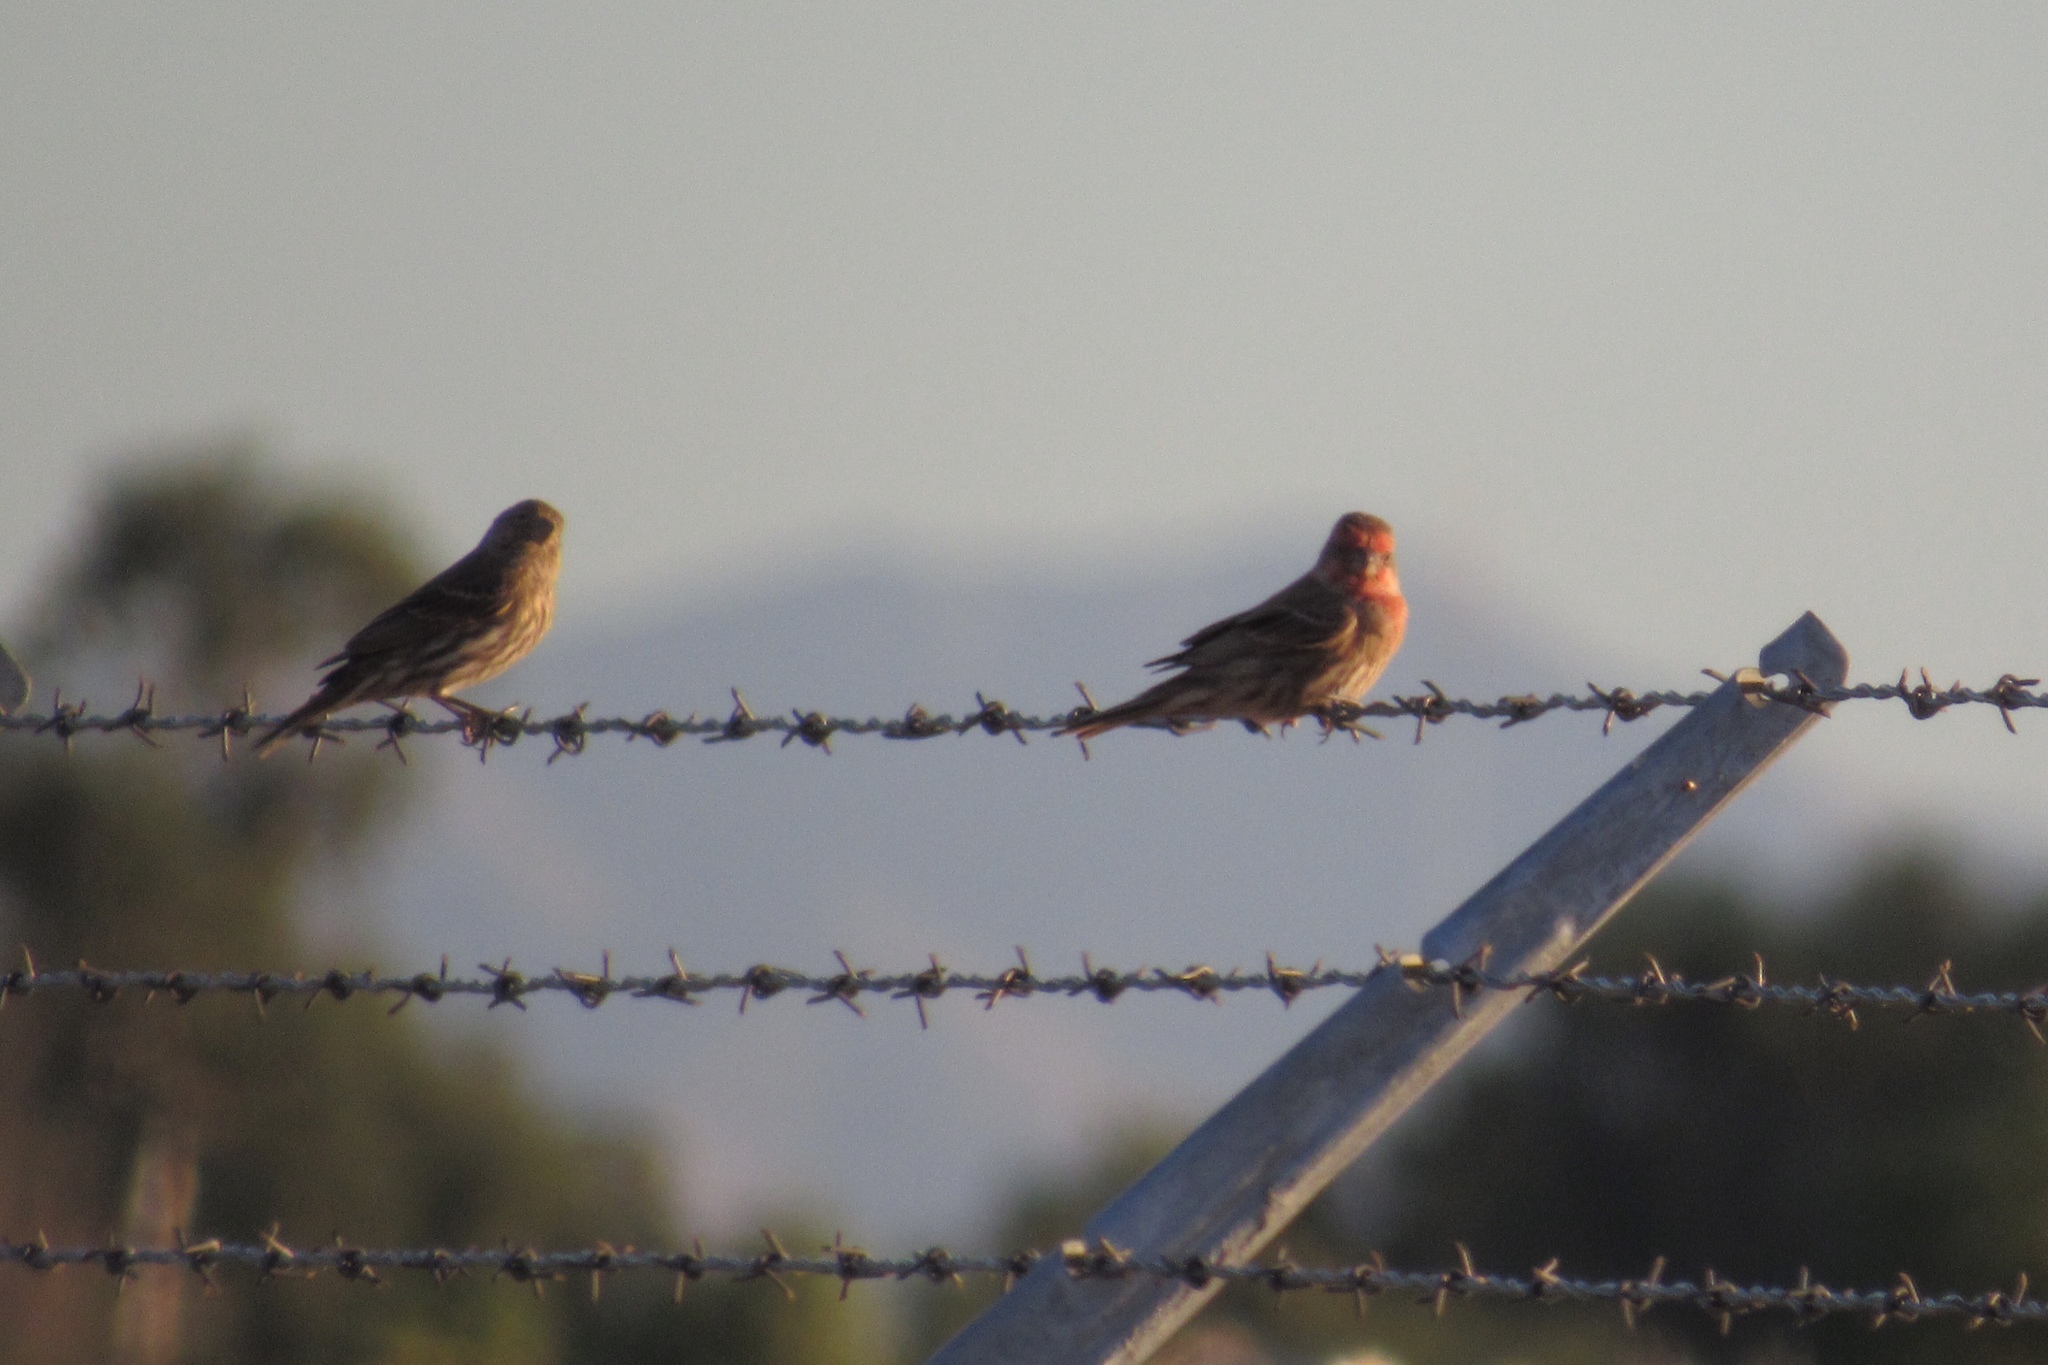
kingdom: Animalia
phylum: Chordata
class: Aves
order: Passeriformes
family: Fringillidae
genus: Haemorhous
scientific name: Haemorhous mexicanus
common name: House finch
